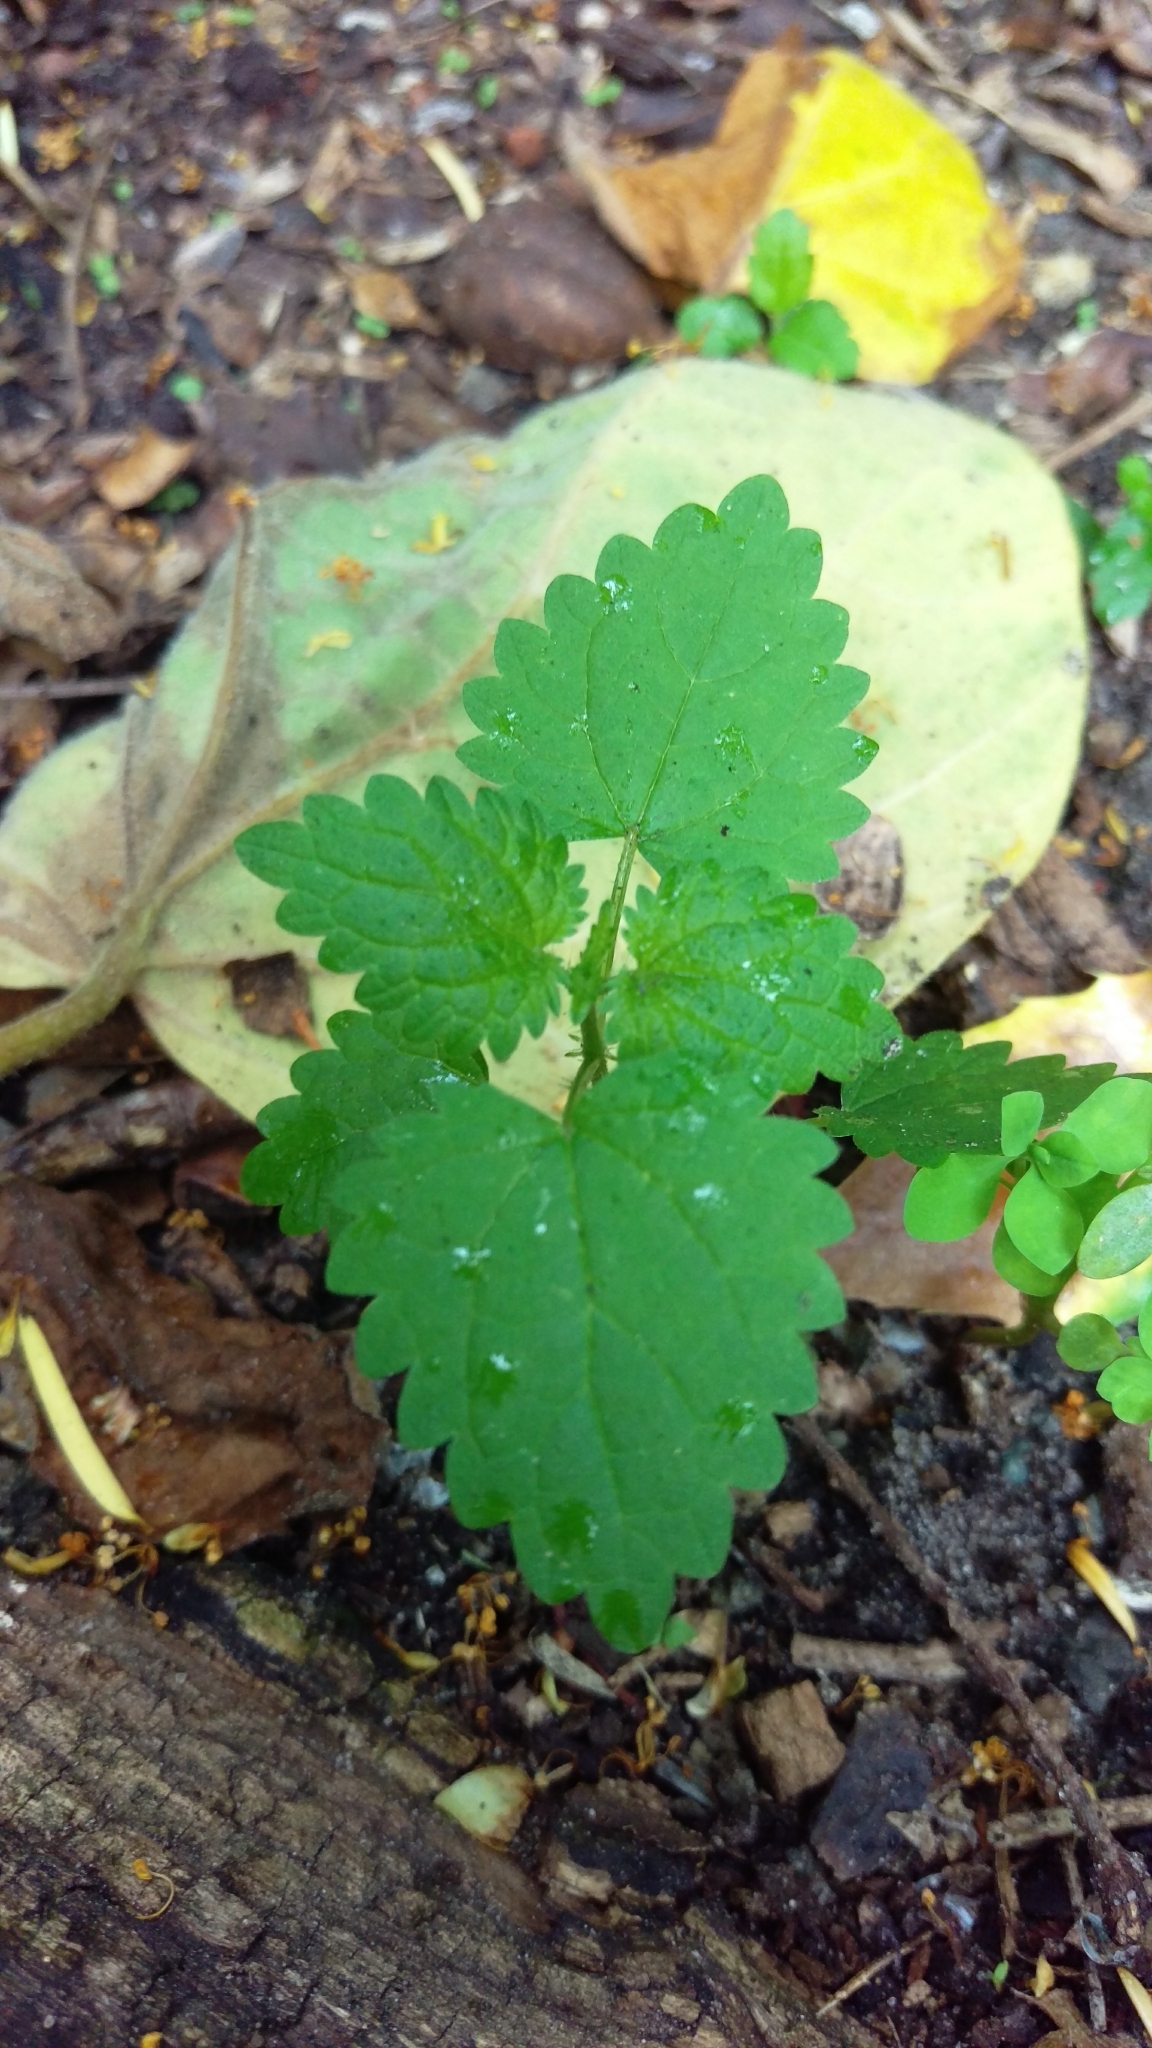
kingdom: Plantae
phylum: Tracheophyta
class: Magnoliopsida
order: Rosales
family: Urticaceae
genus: Urtica
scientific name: Urtica dioica
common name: Common nettle
